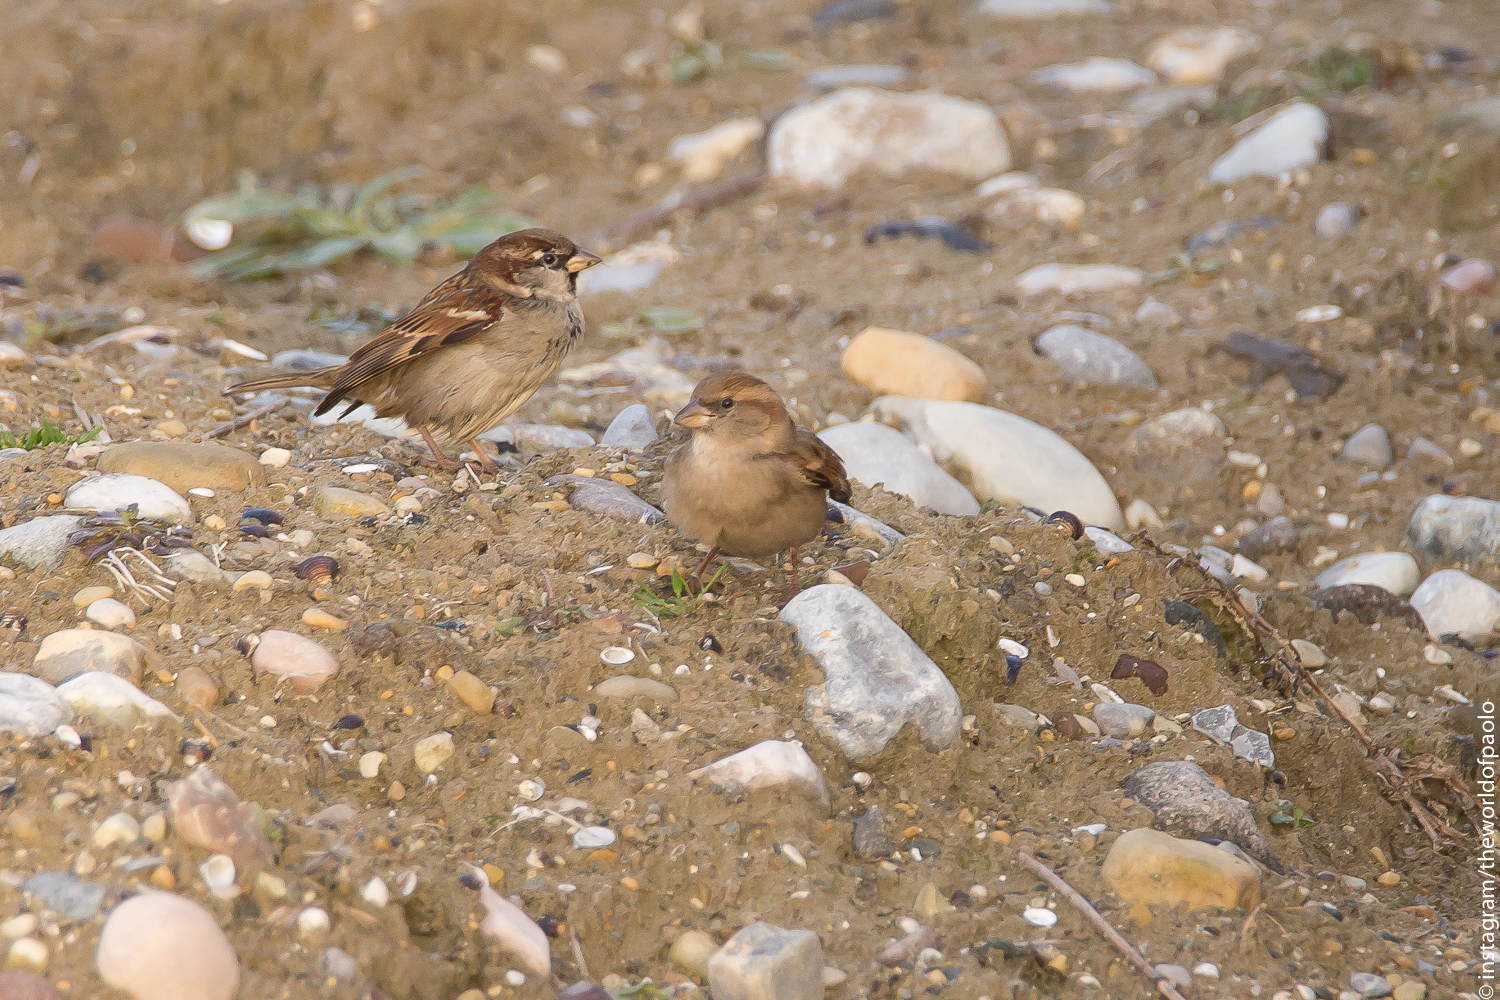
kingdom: Animalia
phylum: Chordata
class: Aves
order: Passeriformes
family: Passeridae
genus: Passer
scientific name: Passer domesticus
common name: House sparrow
